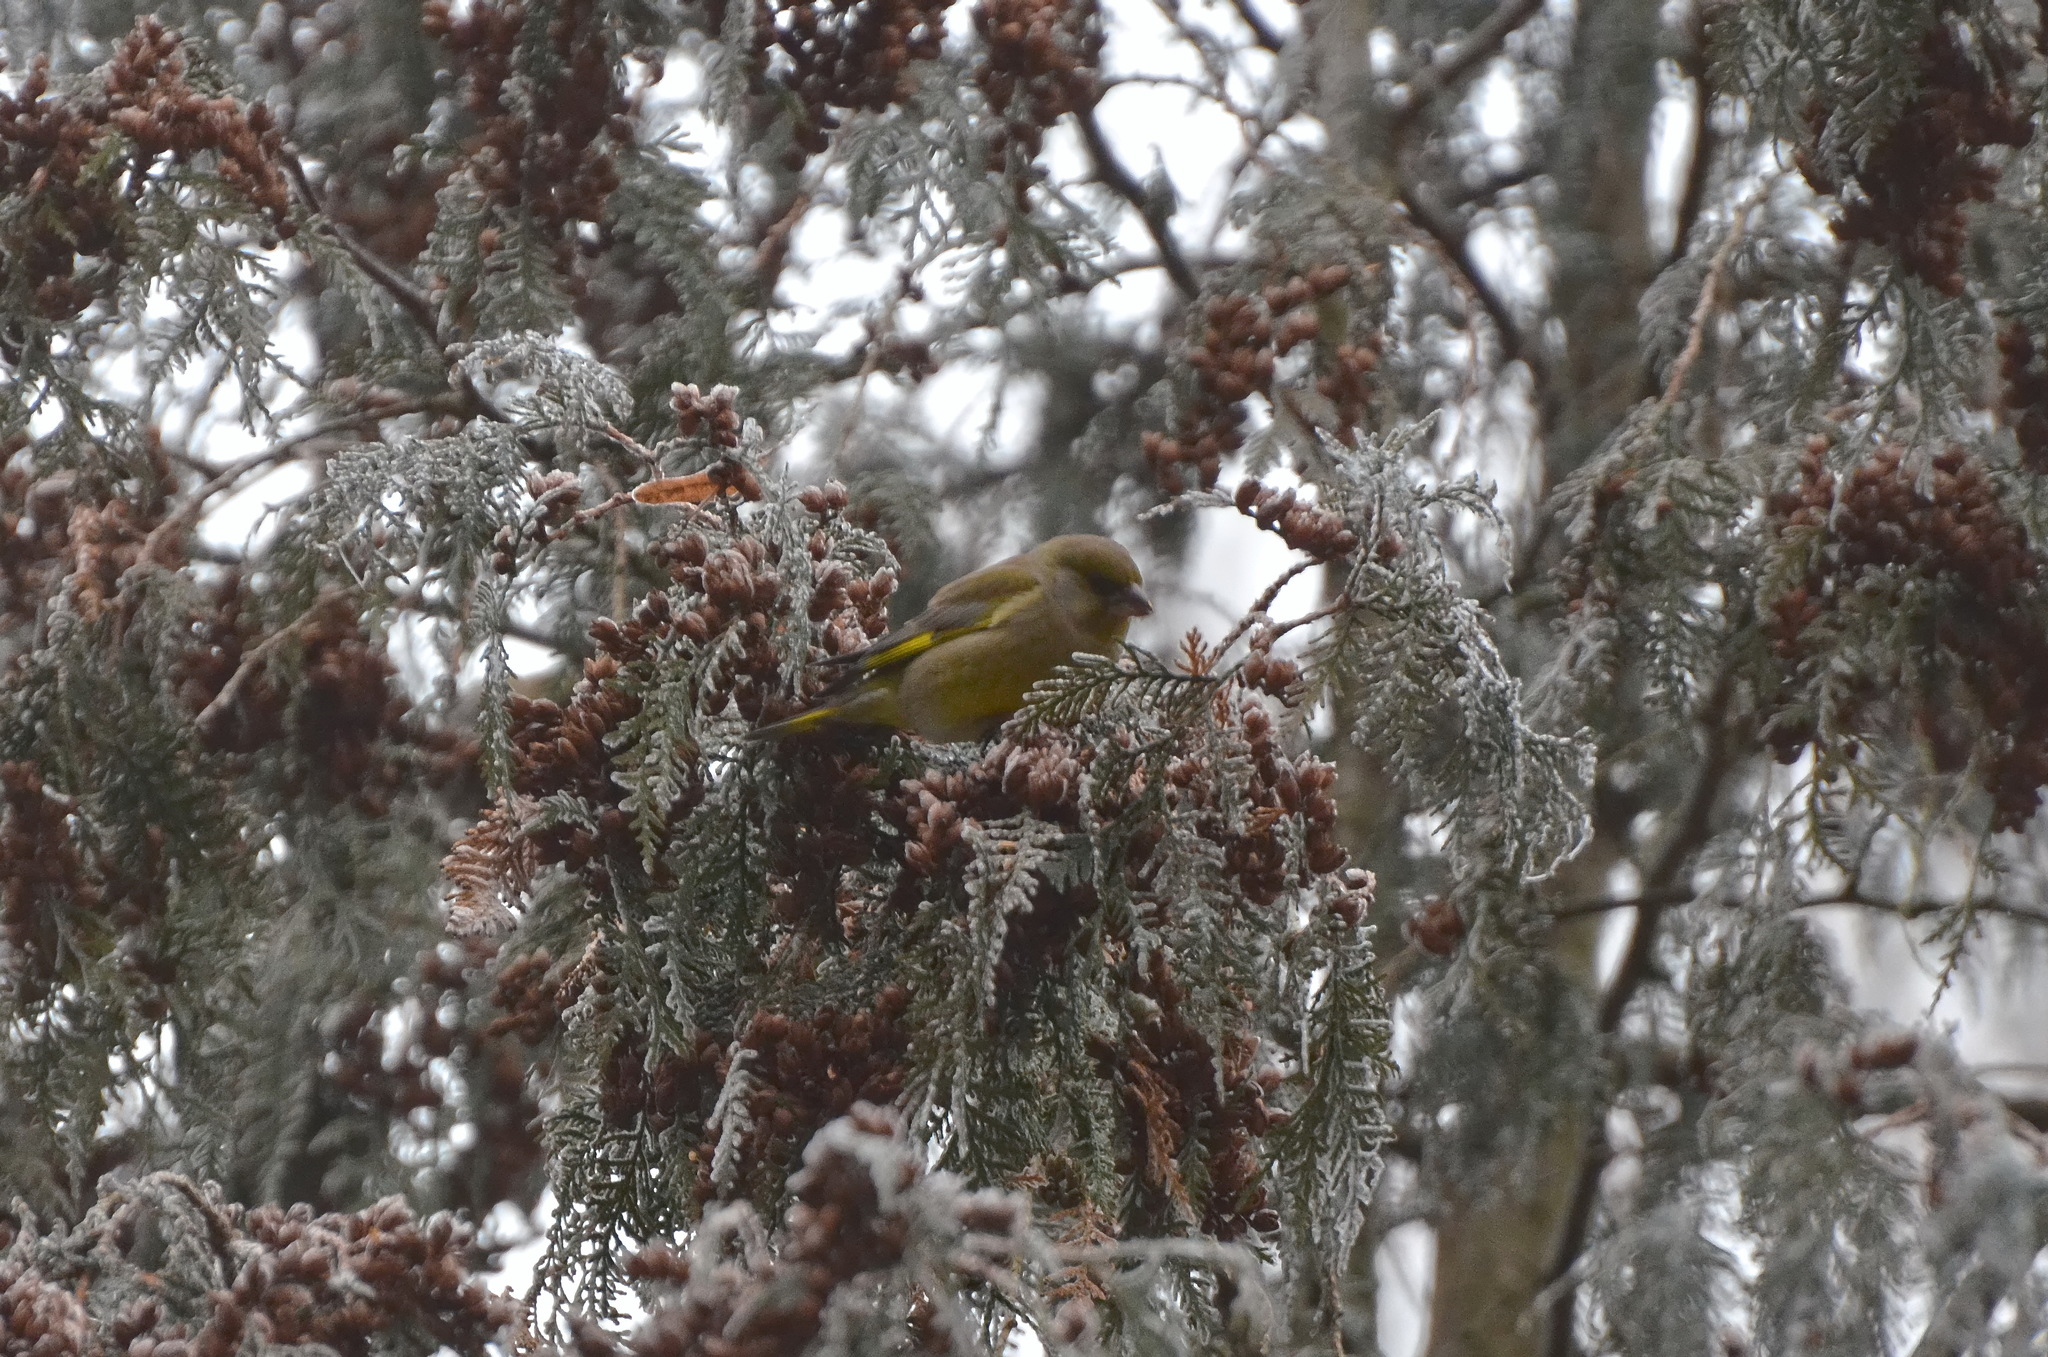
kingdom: Plantae
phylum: Tracheophyta
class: Liliopsida
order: Poales
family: Poaceae
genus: Chloris
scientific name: Chloris chloris
